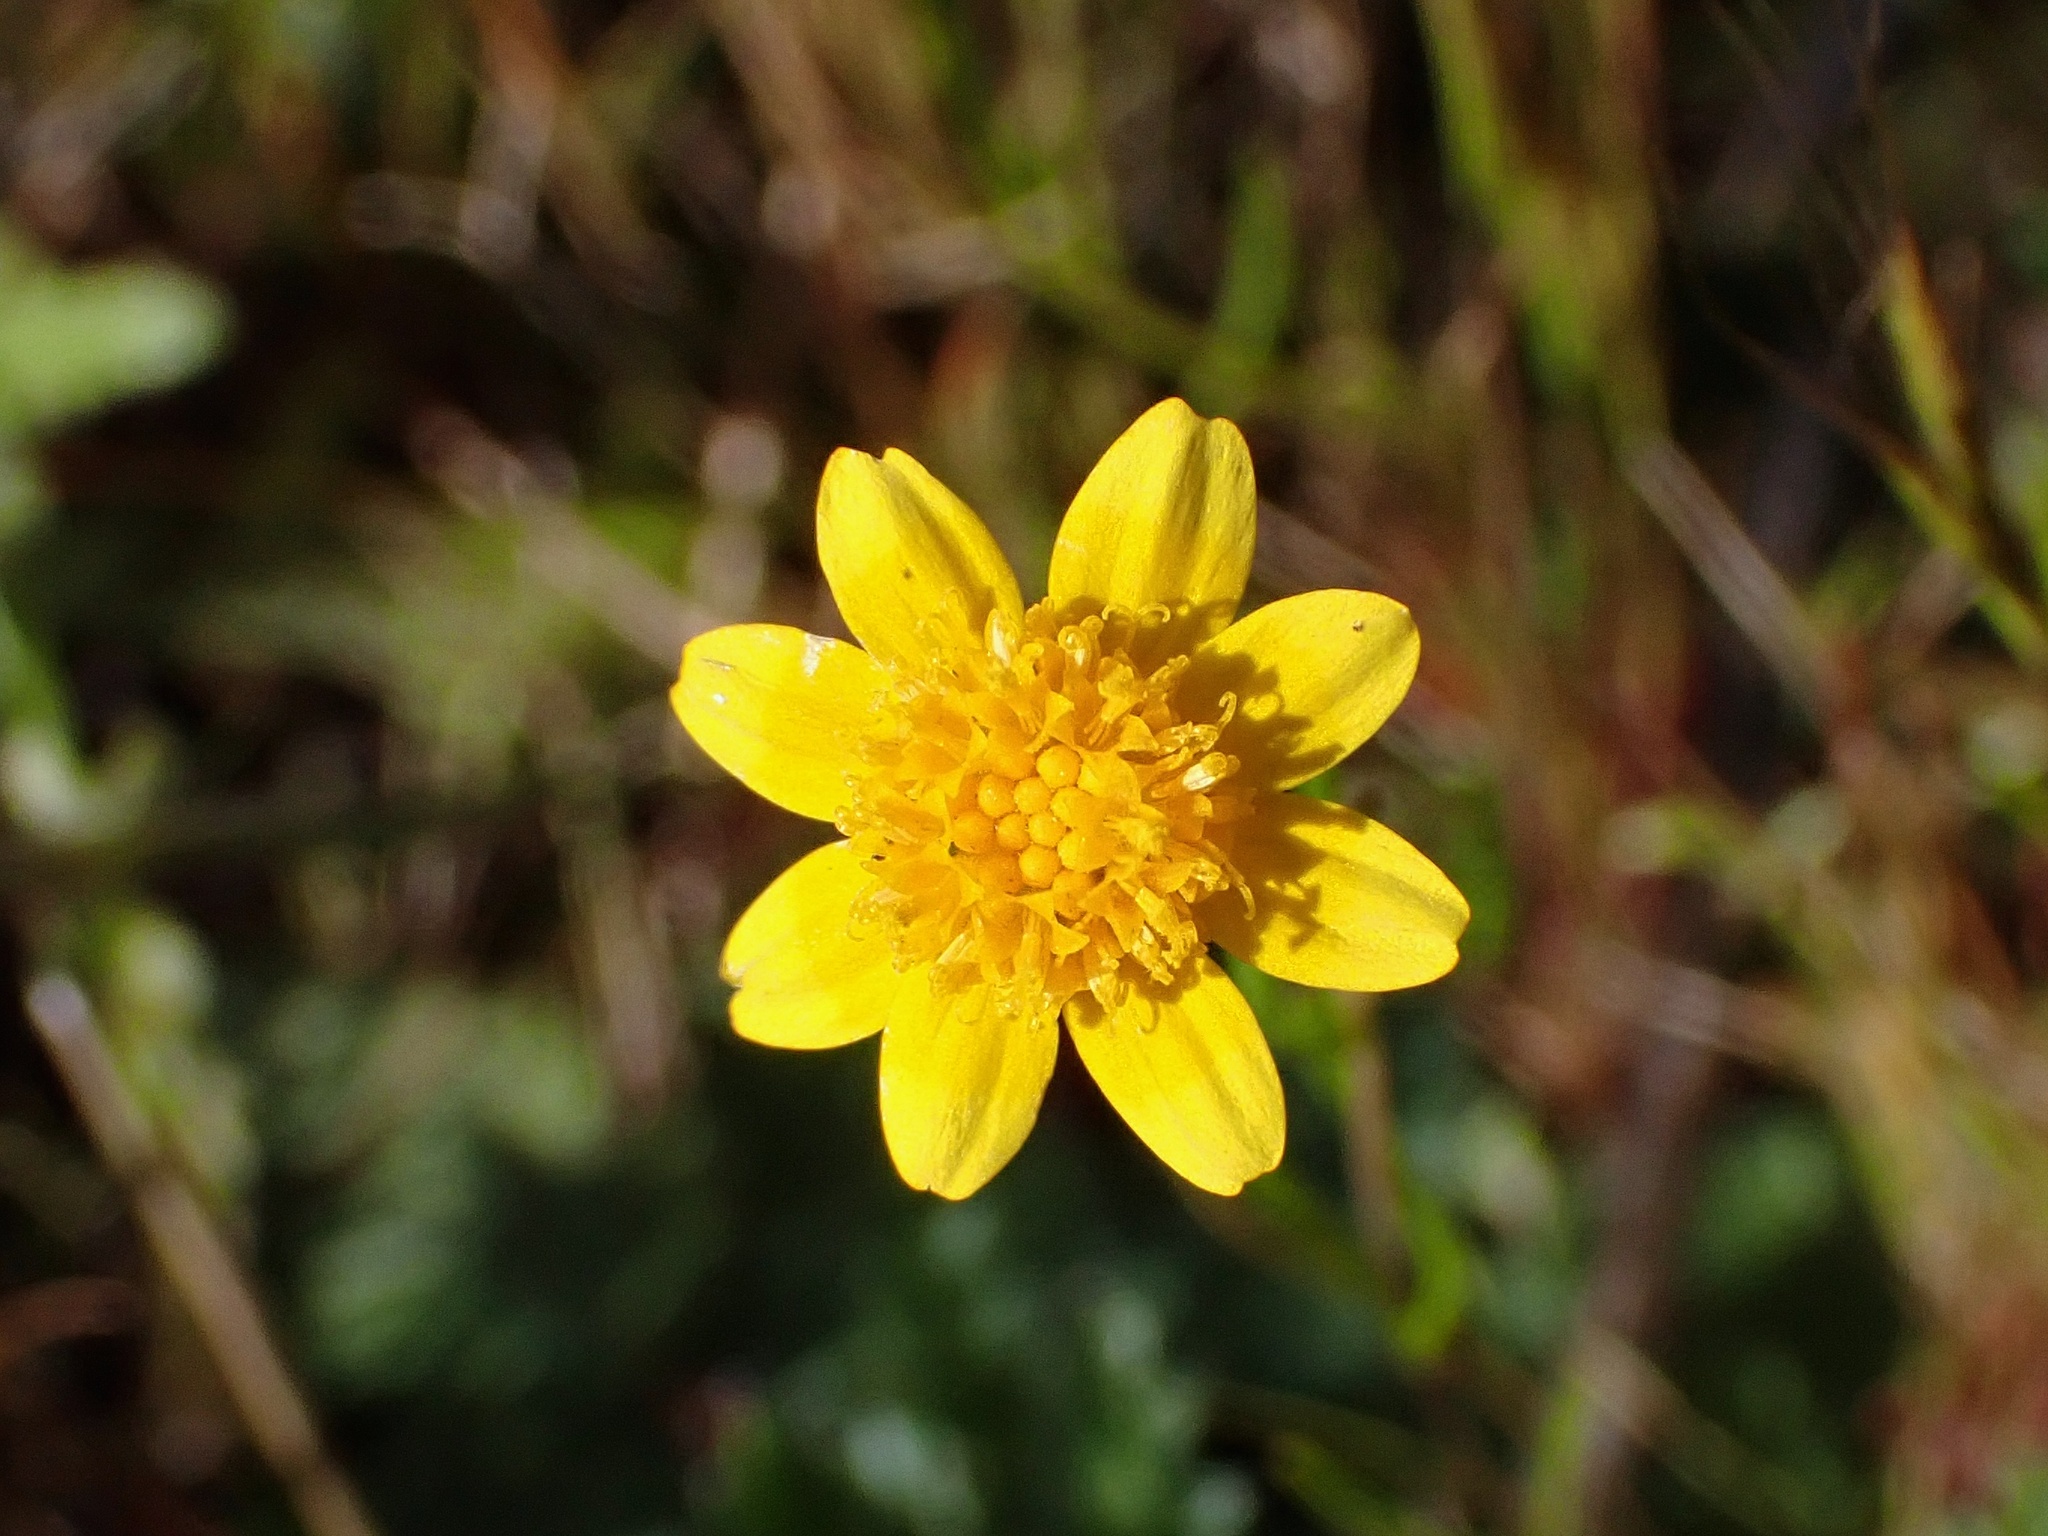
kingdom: Plantae
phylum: Tracheophyta
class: Magnoliopsida
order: Asterales
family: Asteraceae
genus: Lasthenia
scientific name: Lasthenia gracilis
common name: Common goldfields
